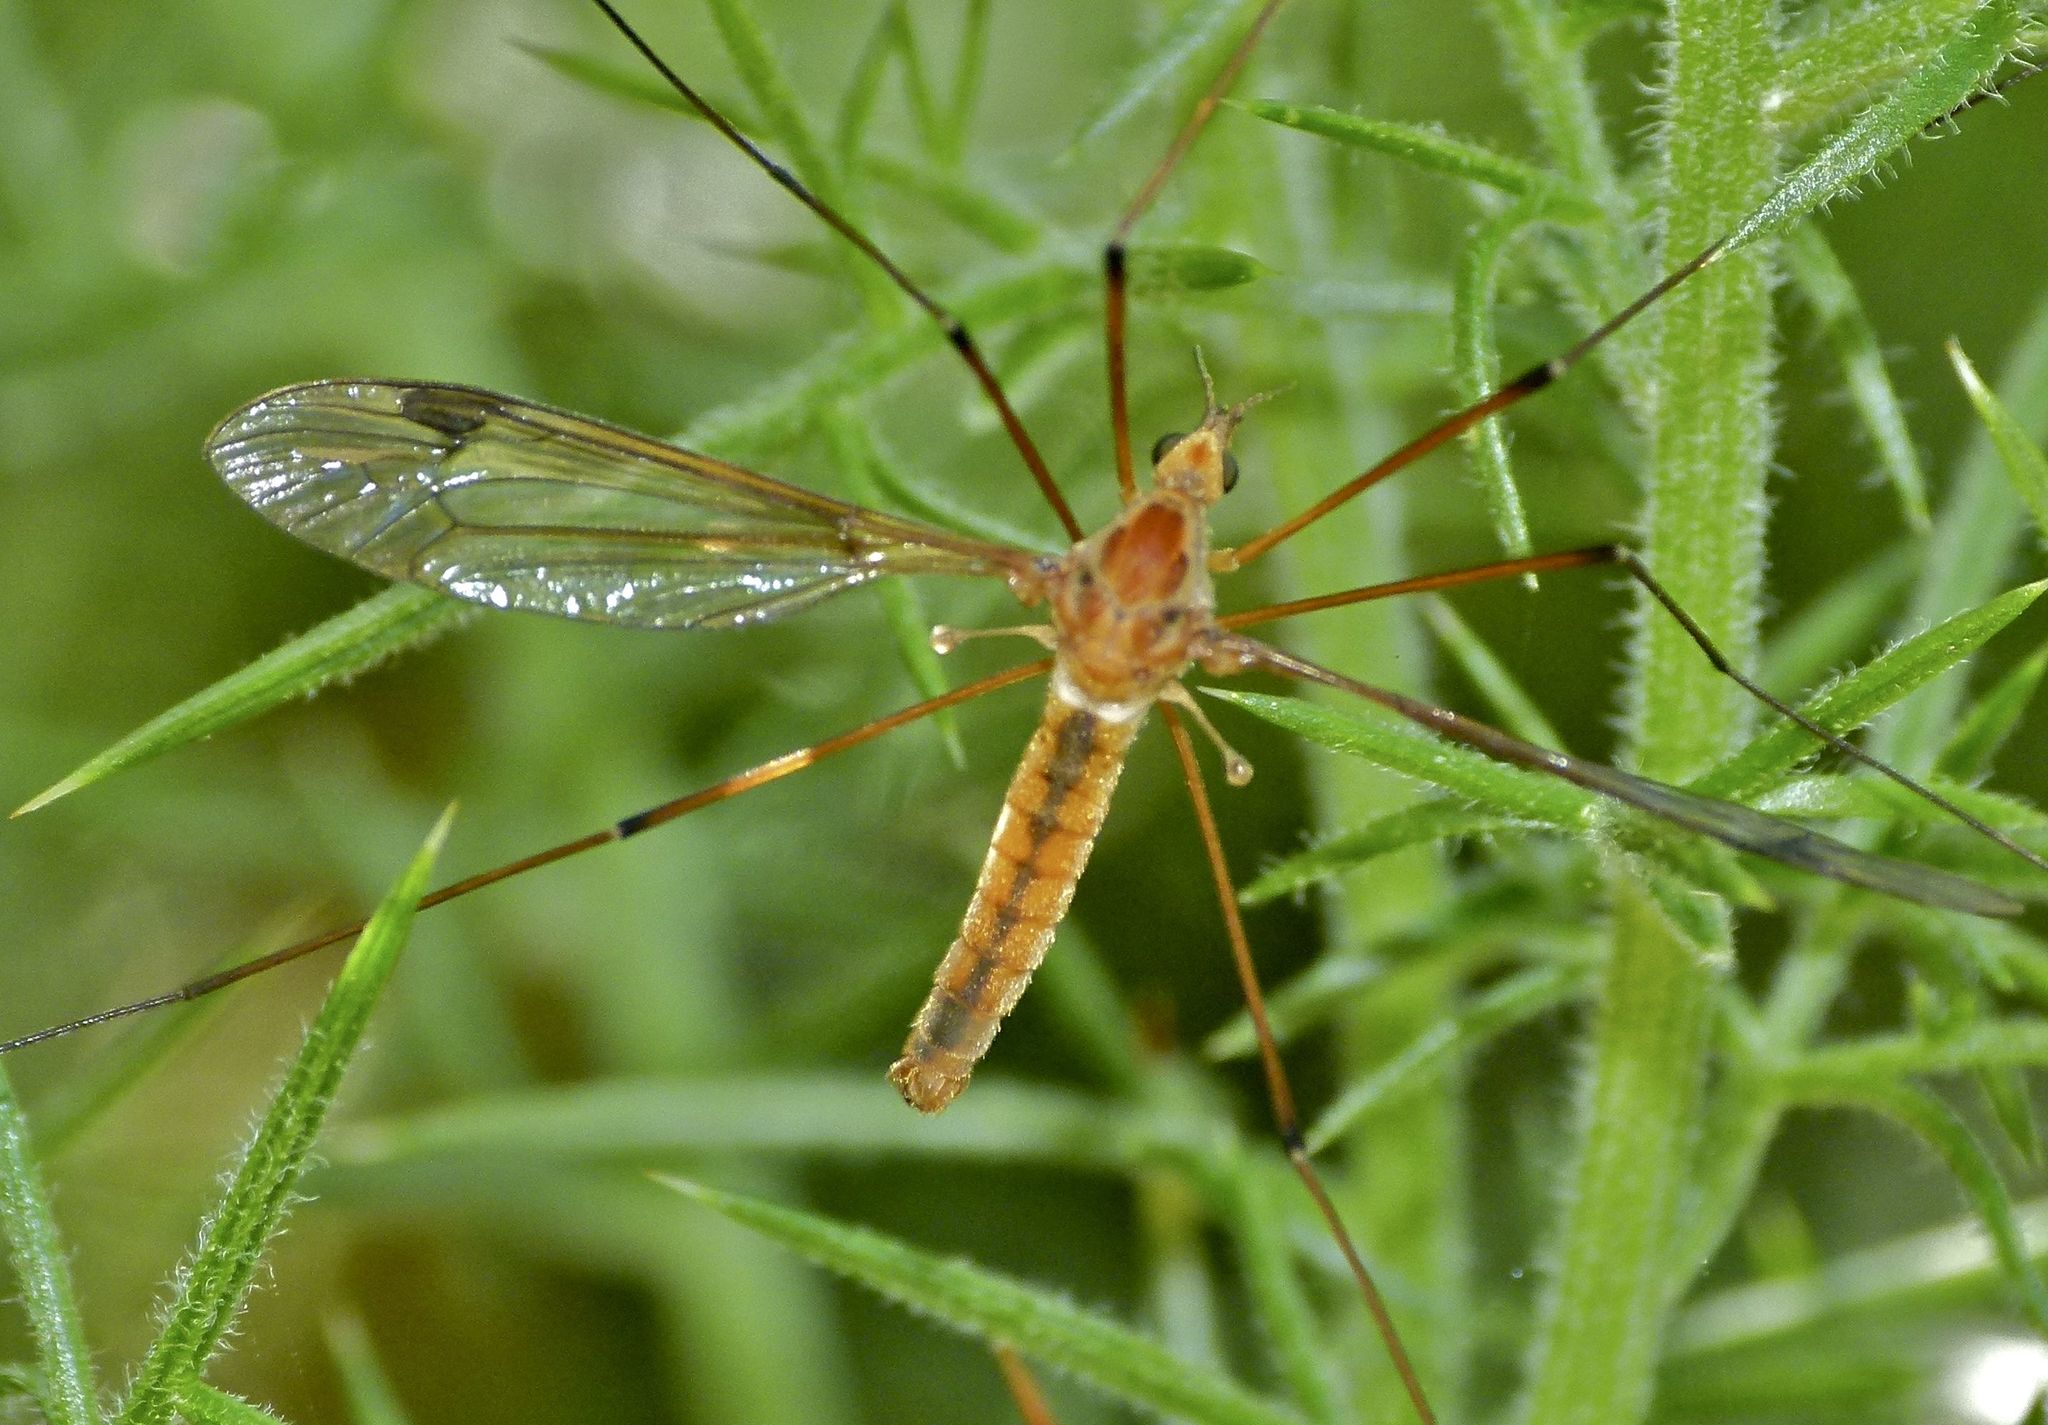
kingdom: Animalia
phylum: Arthropoda
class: Insecta
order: Diptera
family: Tipulidae
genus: Leptotarsus
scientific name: Leptotarsus dichroithorax
